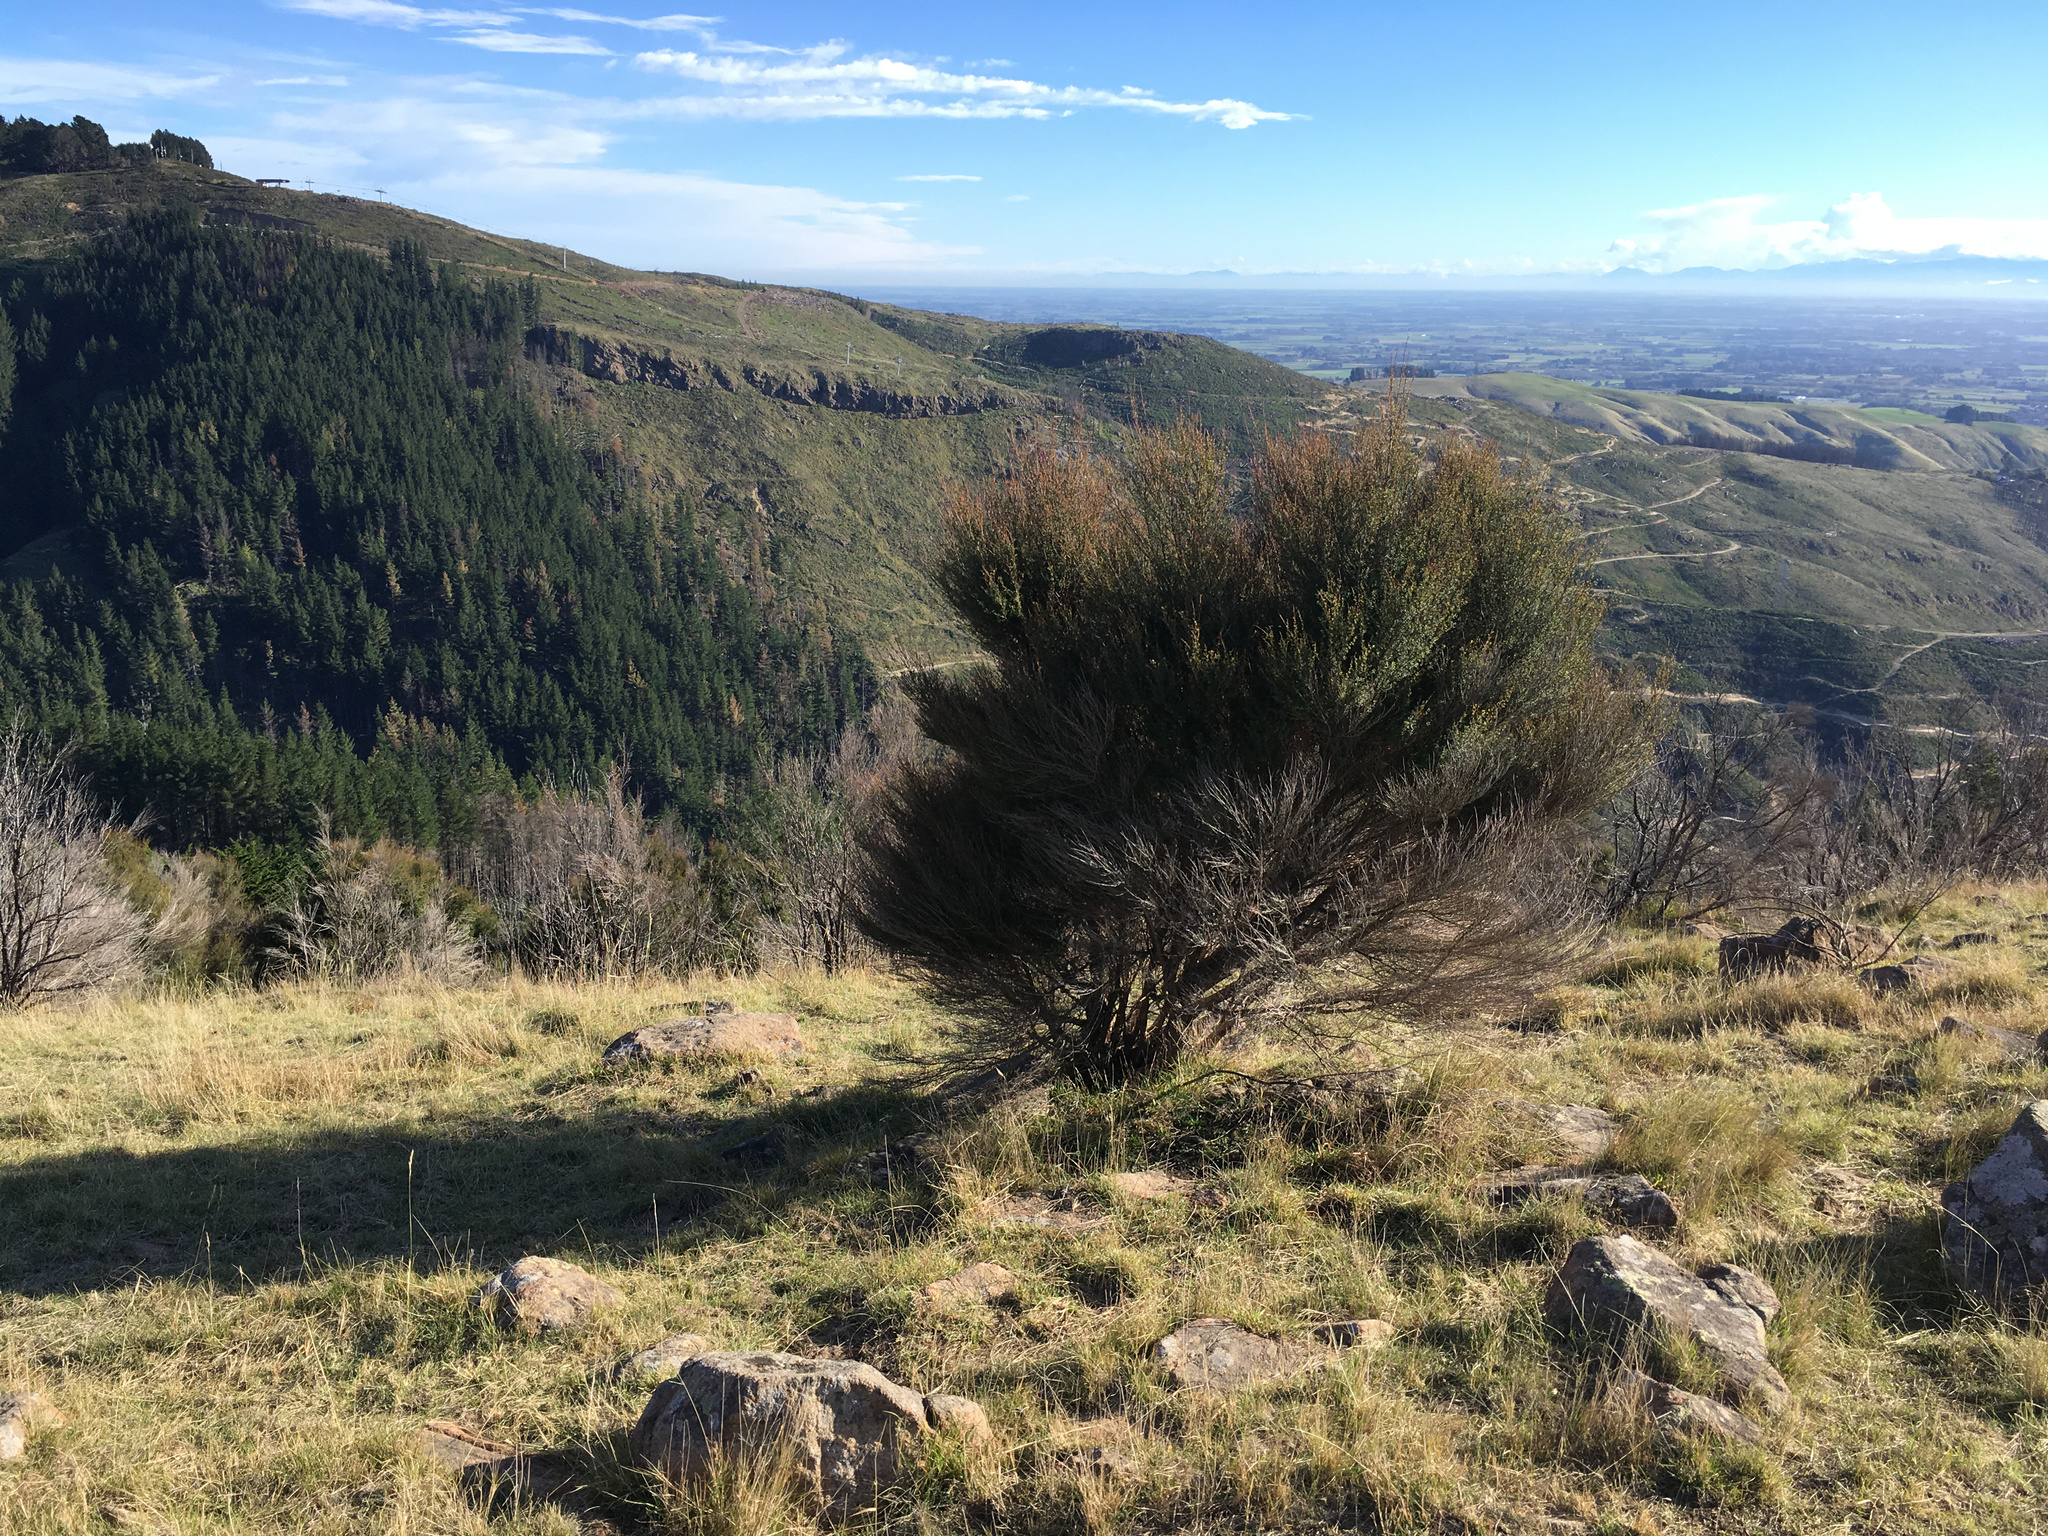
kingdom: Plantae
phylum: Tracheophyta
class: Magnoliopsida
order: Myrtales
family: Myrtaceae
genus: Kunzea
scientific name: Kunzea robusta
